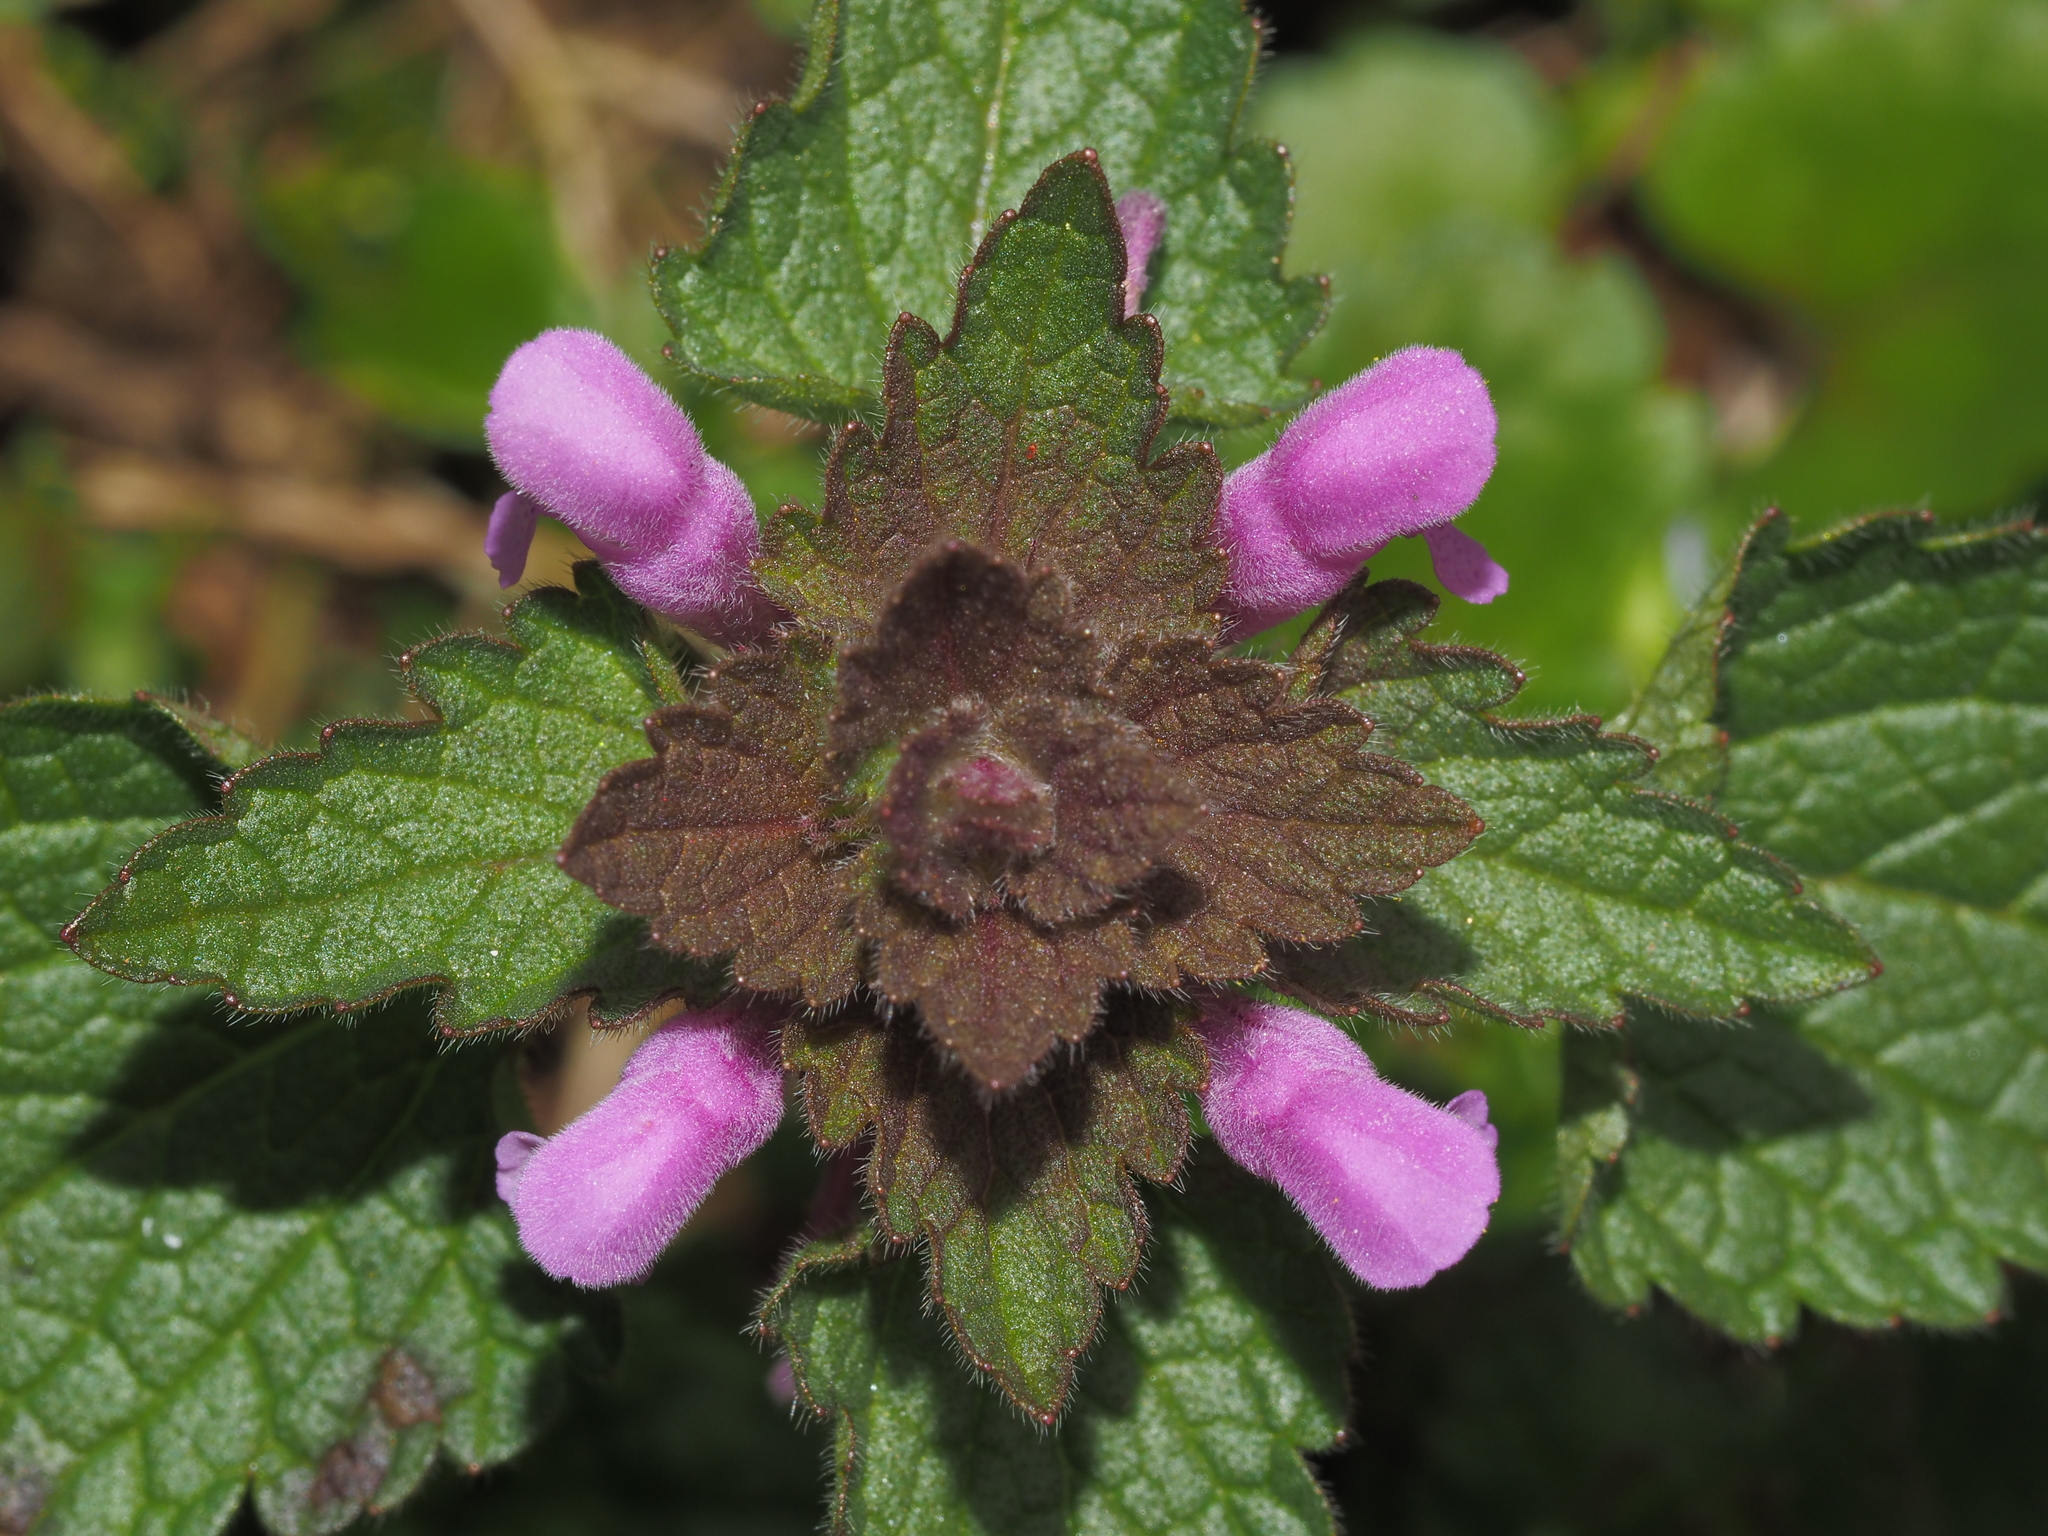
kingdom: Plantae
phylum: Tracheophyta
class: Magnoliopsida
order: Lamiales
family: Lamiaceae
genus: Lamium
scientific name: Lamium purpureum
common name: Red dead-nettle
